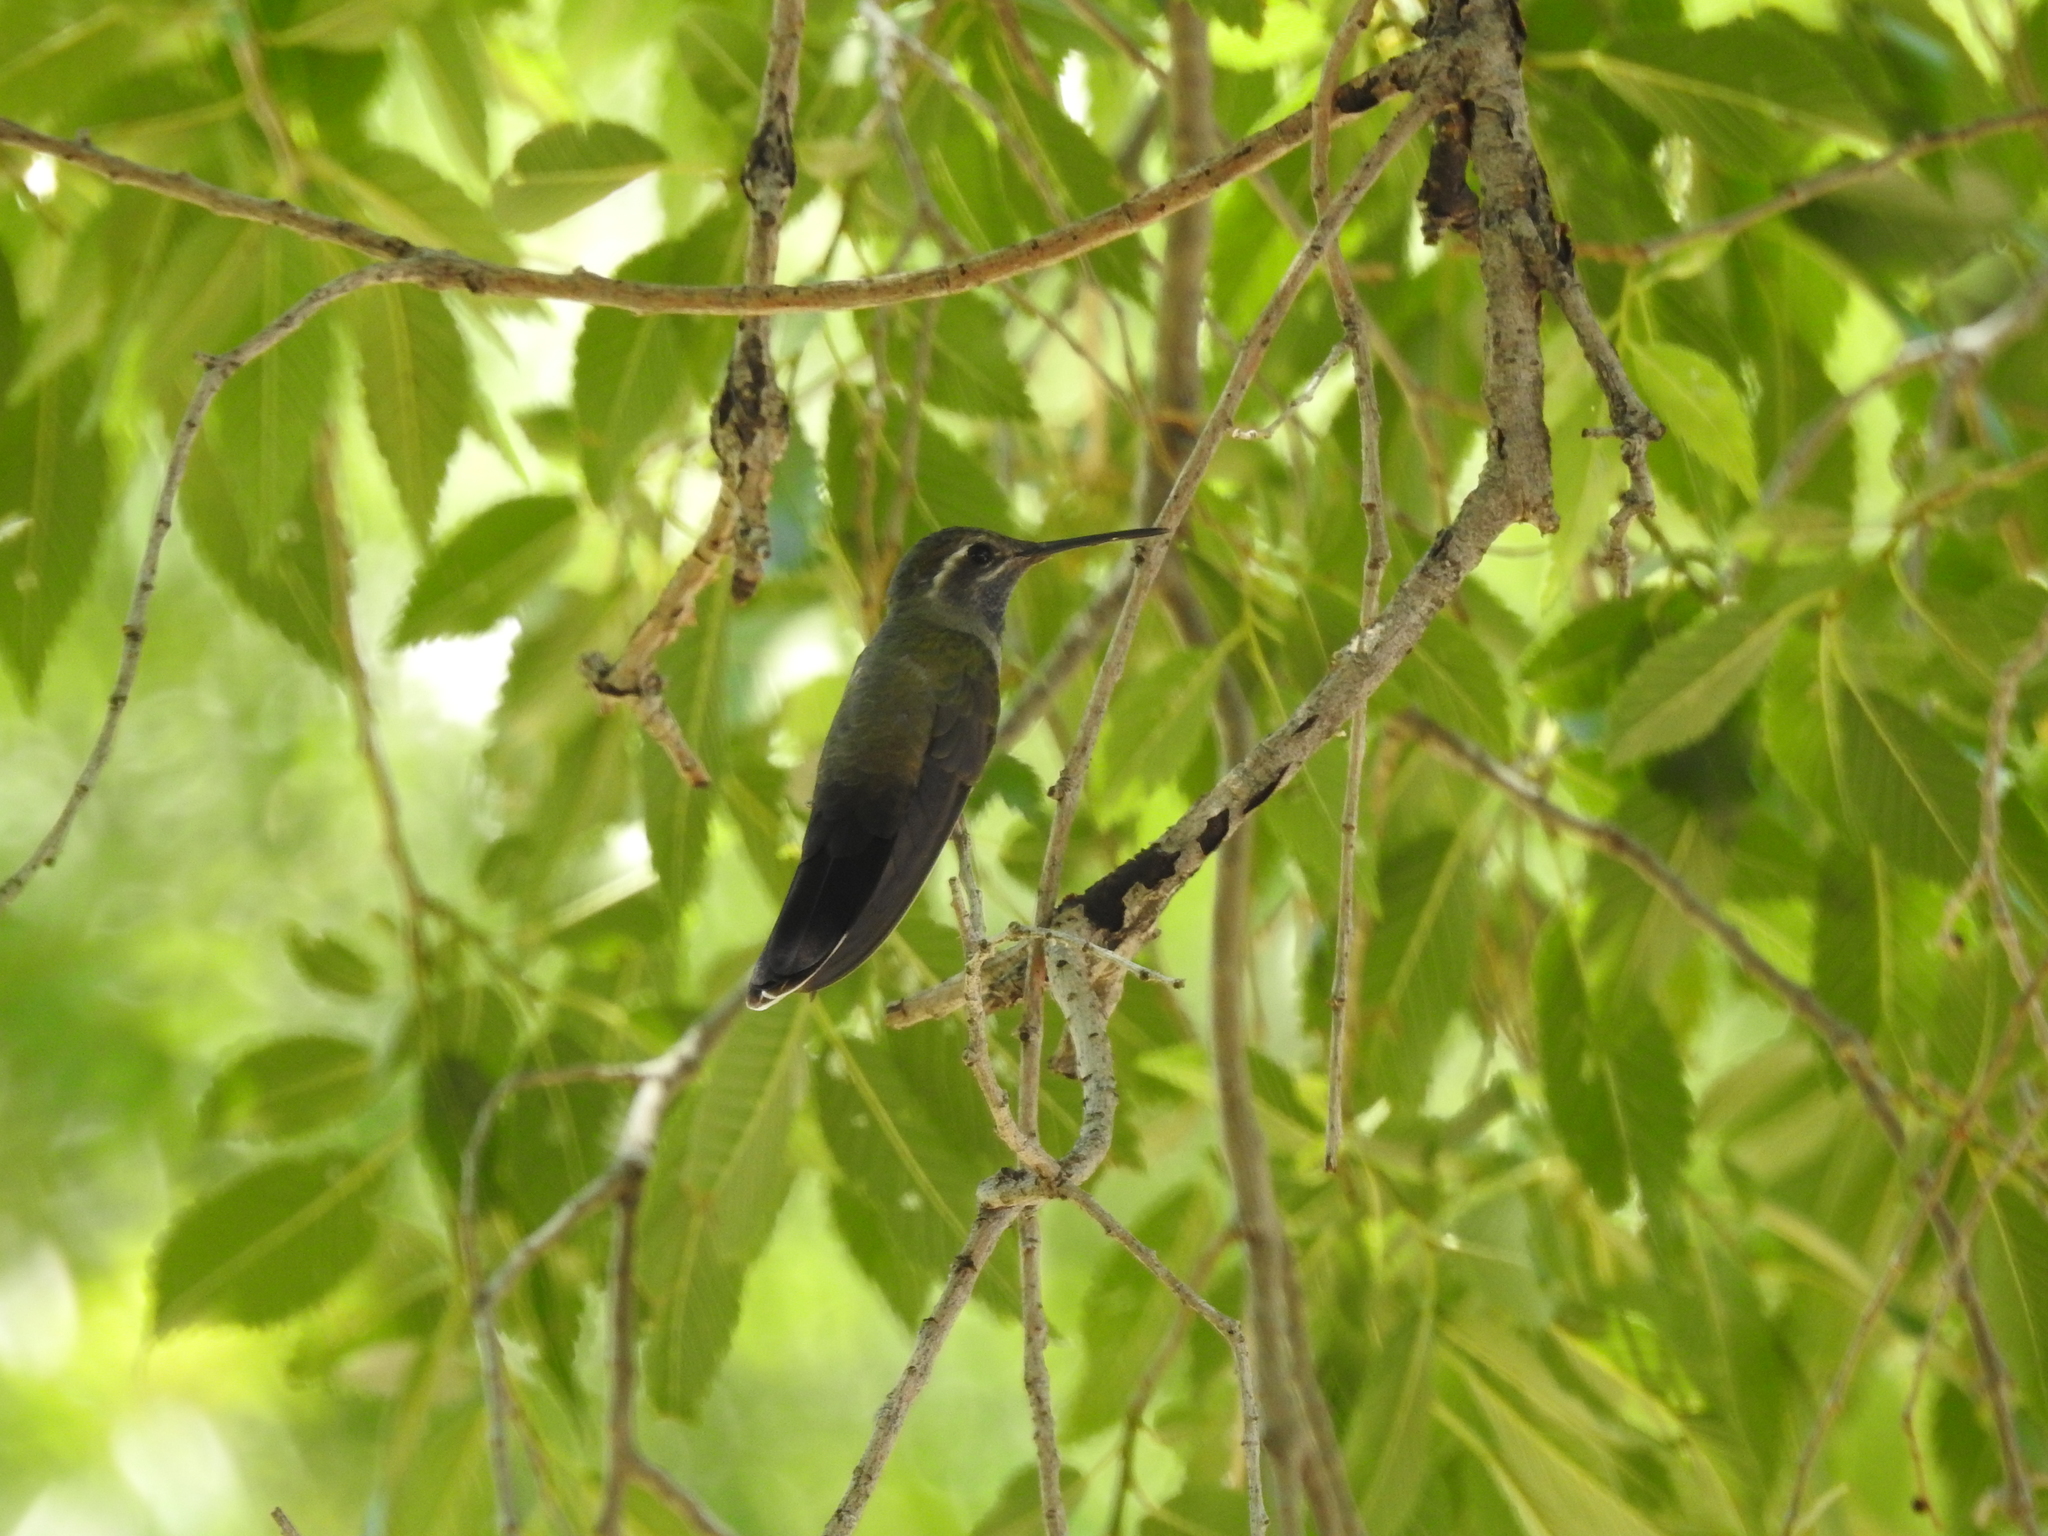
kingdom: Animalia
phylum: Chordata
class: Aves
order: Apodiformes
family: Trochilidae
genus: Lampornis
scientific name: Lampornis clemenciae
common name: Blue-throated mountaingem
